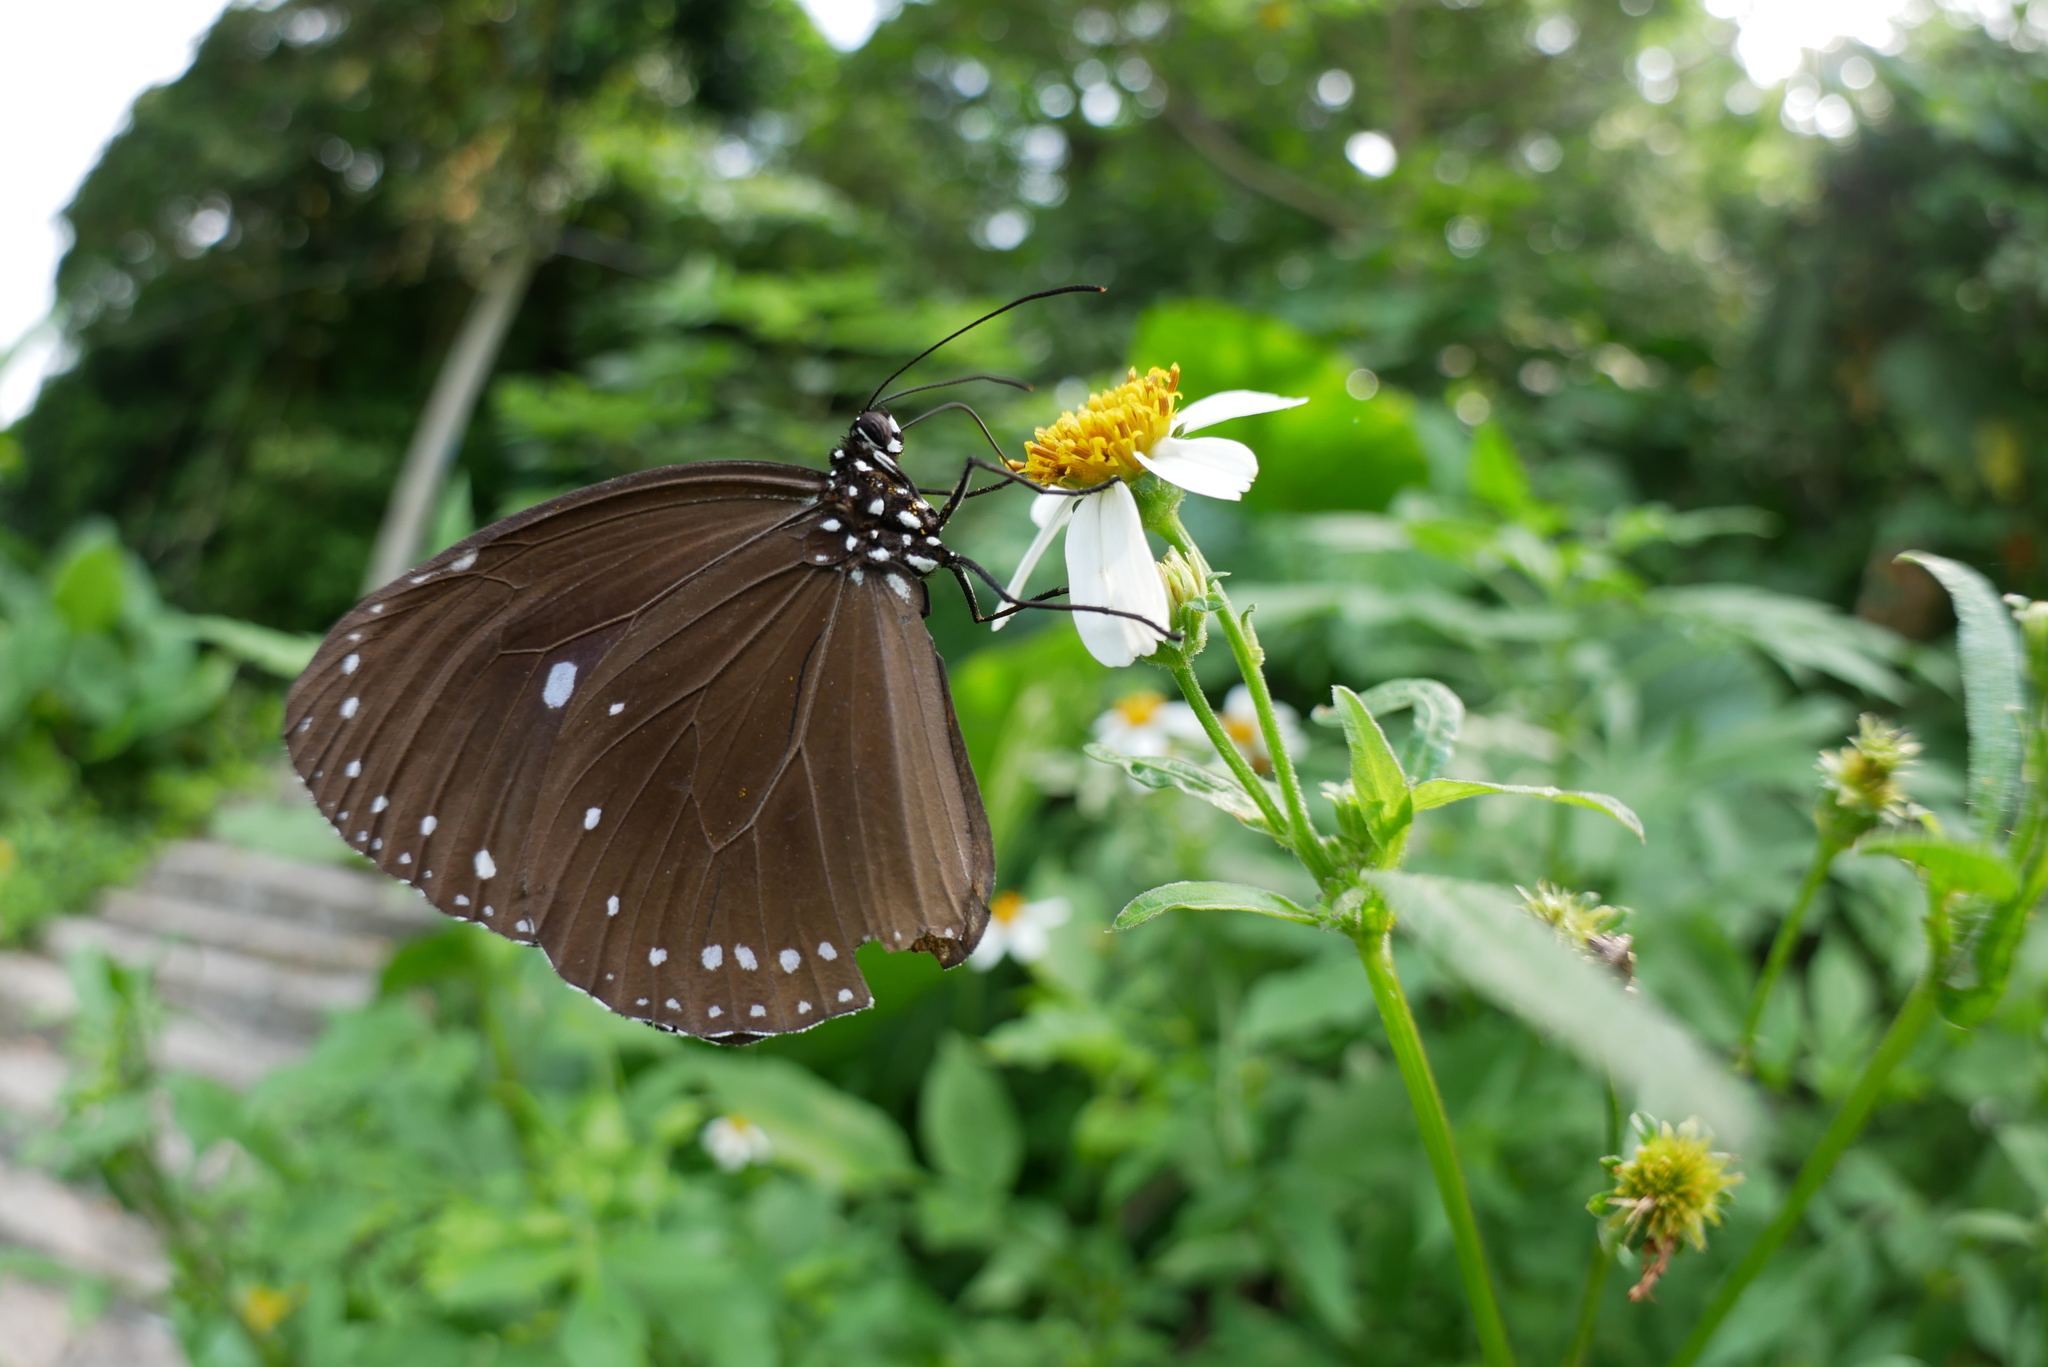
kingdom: Animalia
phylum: Arthropoda
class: Insecta
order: Lepidoptera
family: Nymphalidae
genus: Euploea
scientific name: Euploea tulliolus
